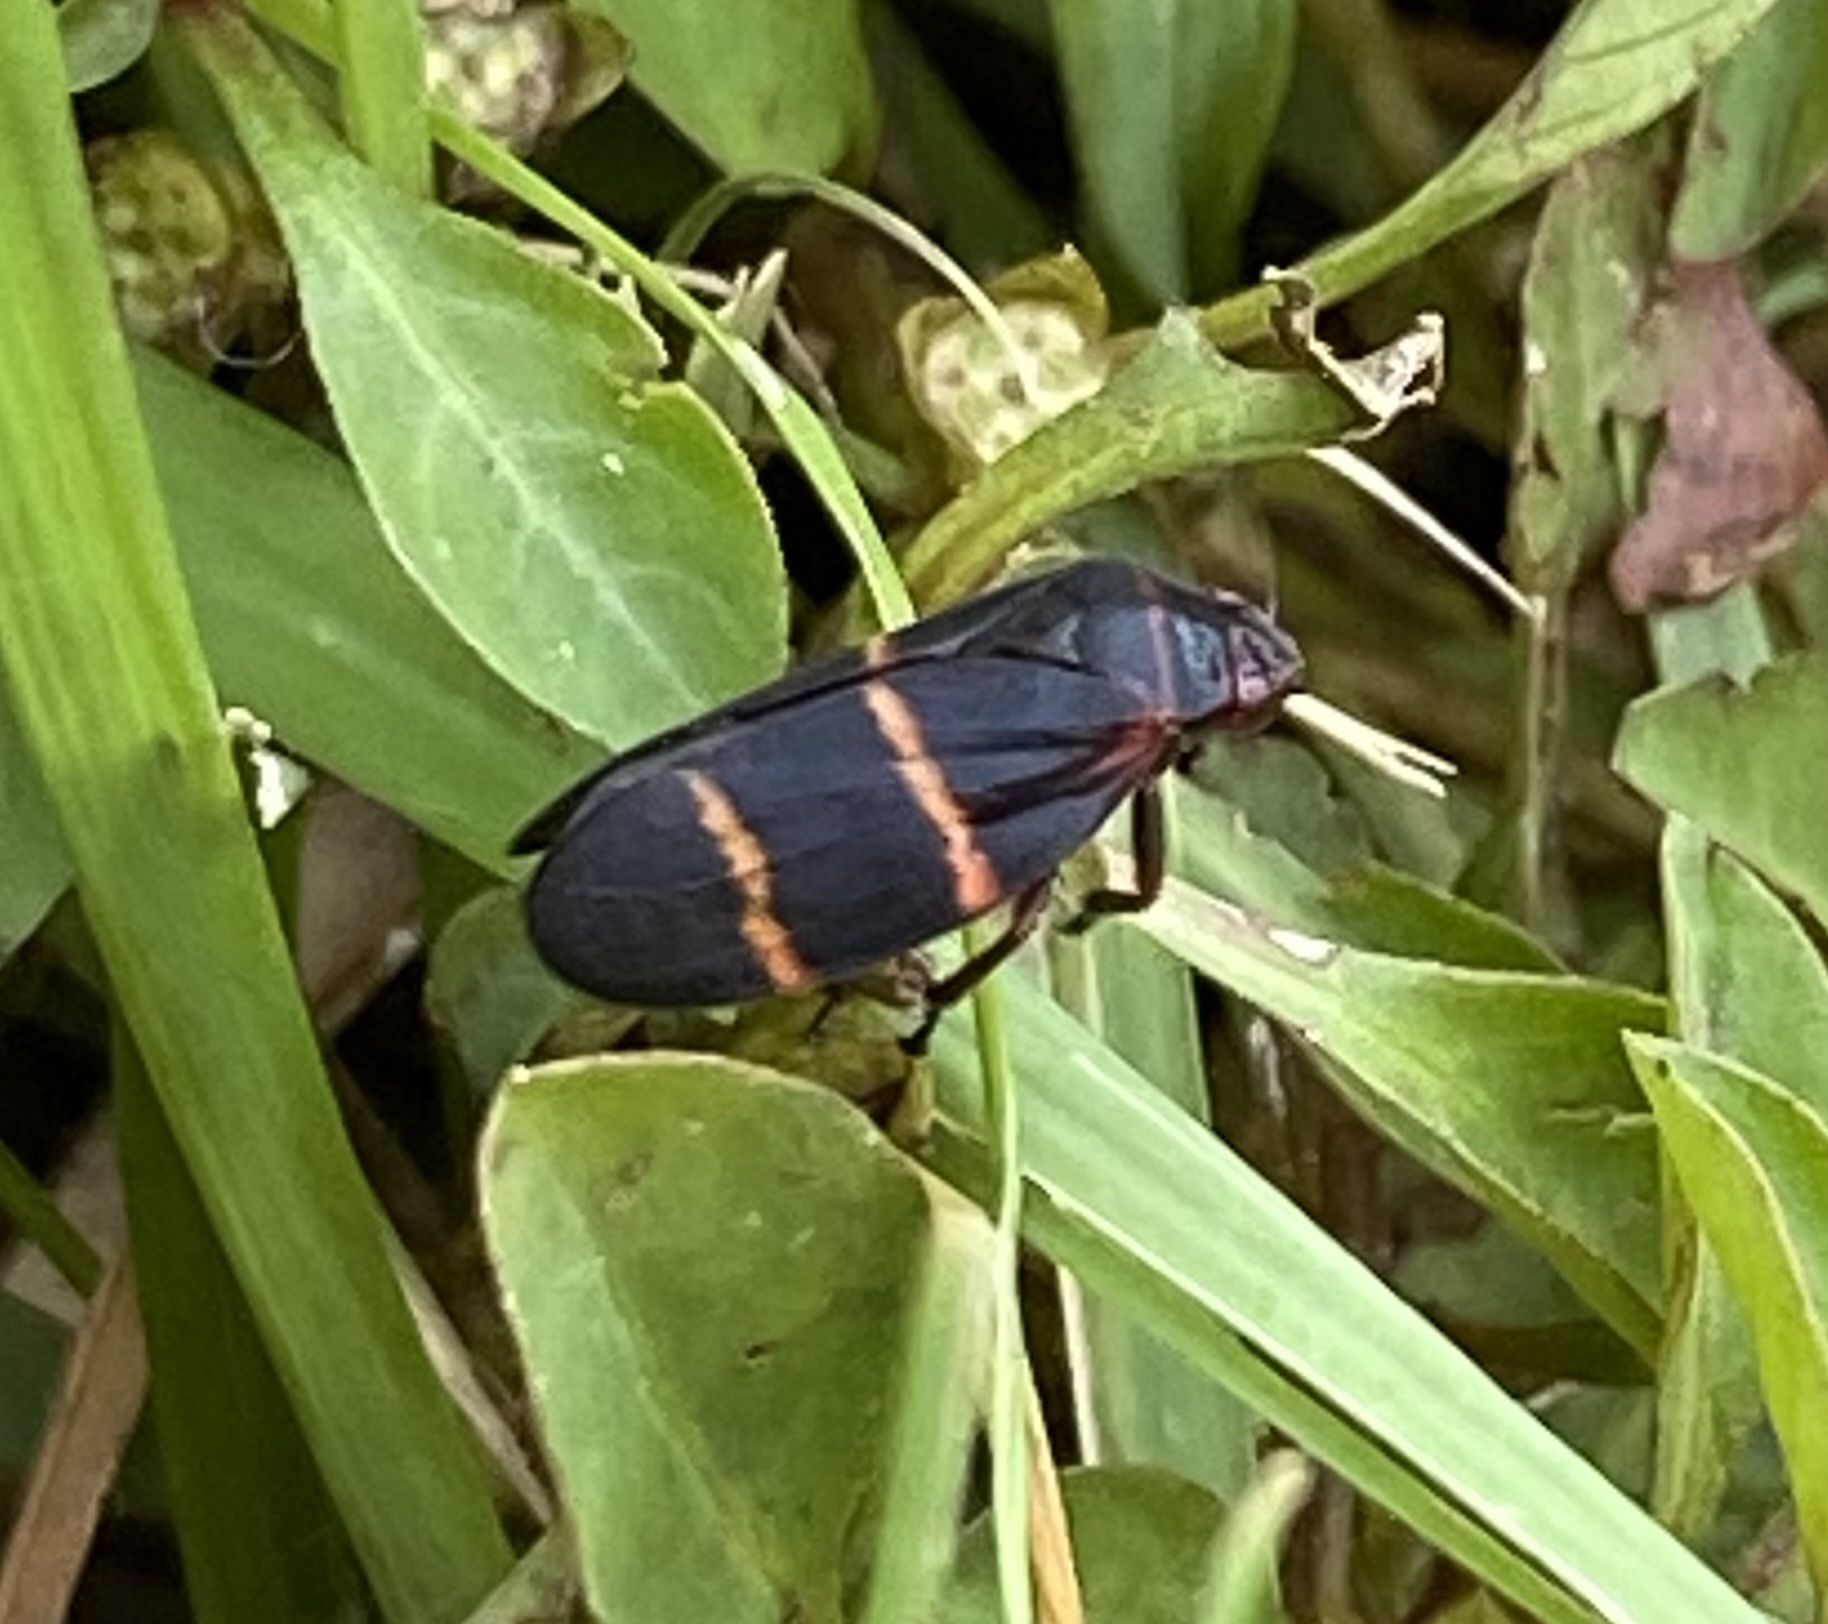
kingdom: Animalia
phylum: Arthropoda
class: Insecta
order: Hemiptera
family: Cercopidae
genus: Prosapia
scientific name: Prosapia bicincta
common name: Twolined spittlebug
